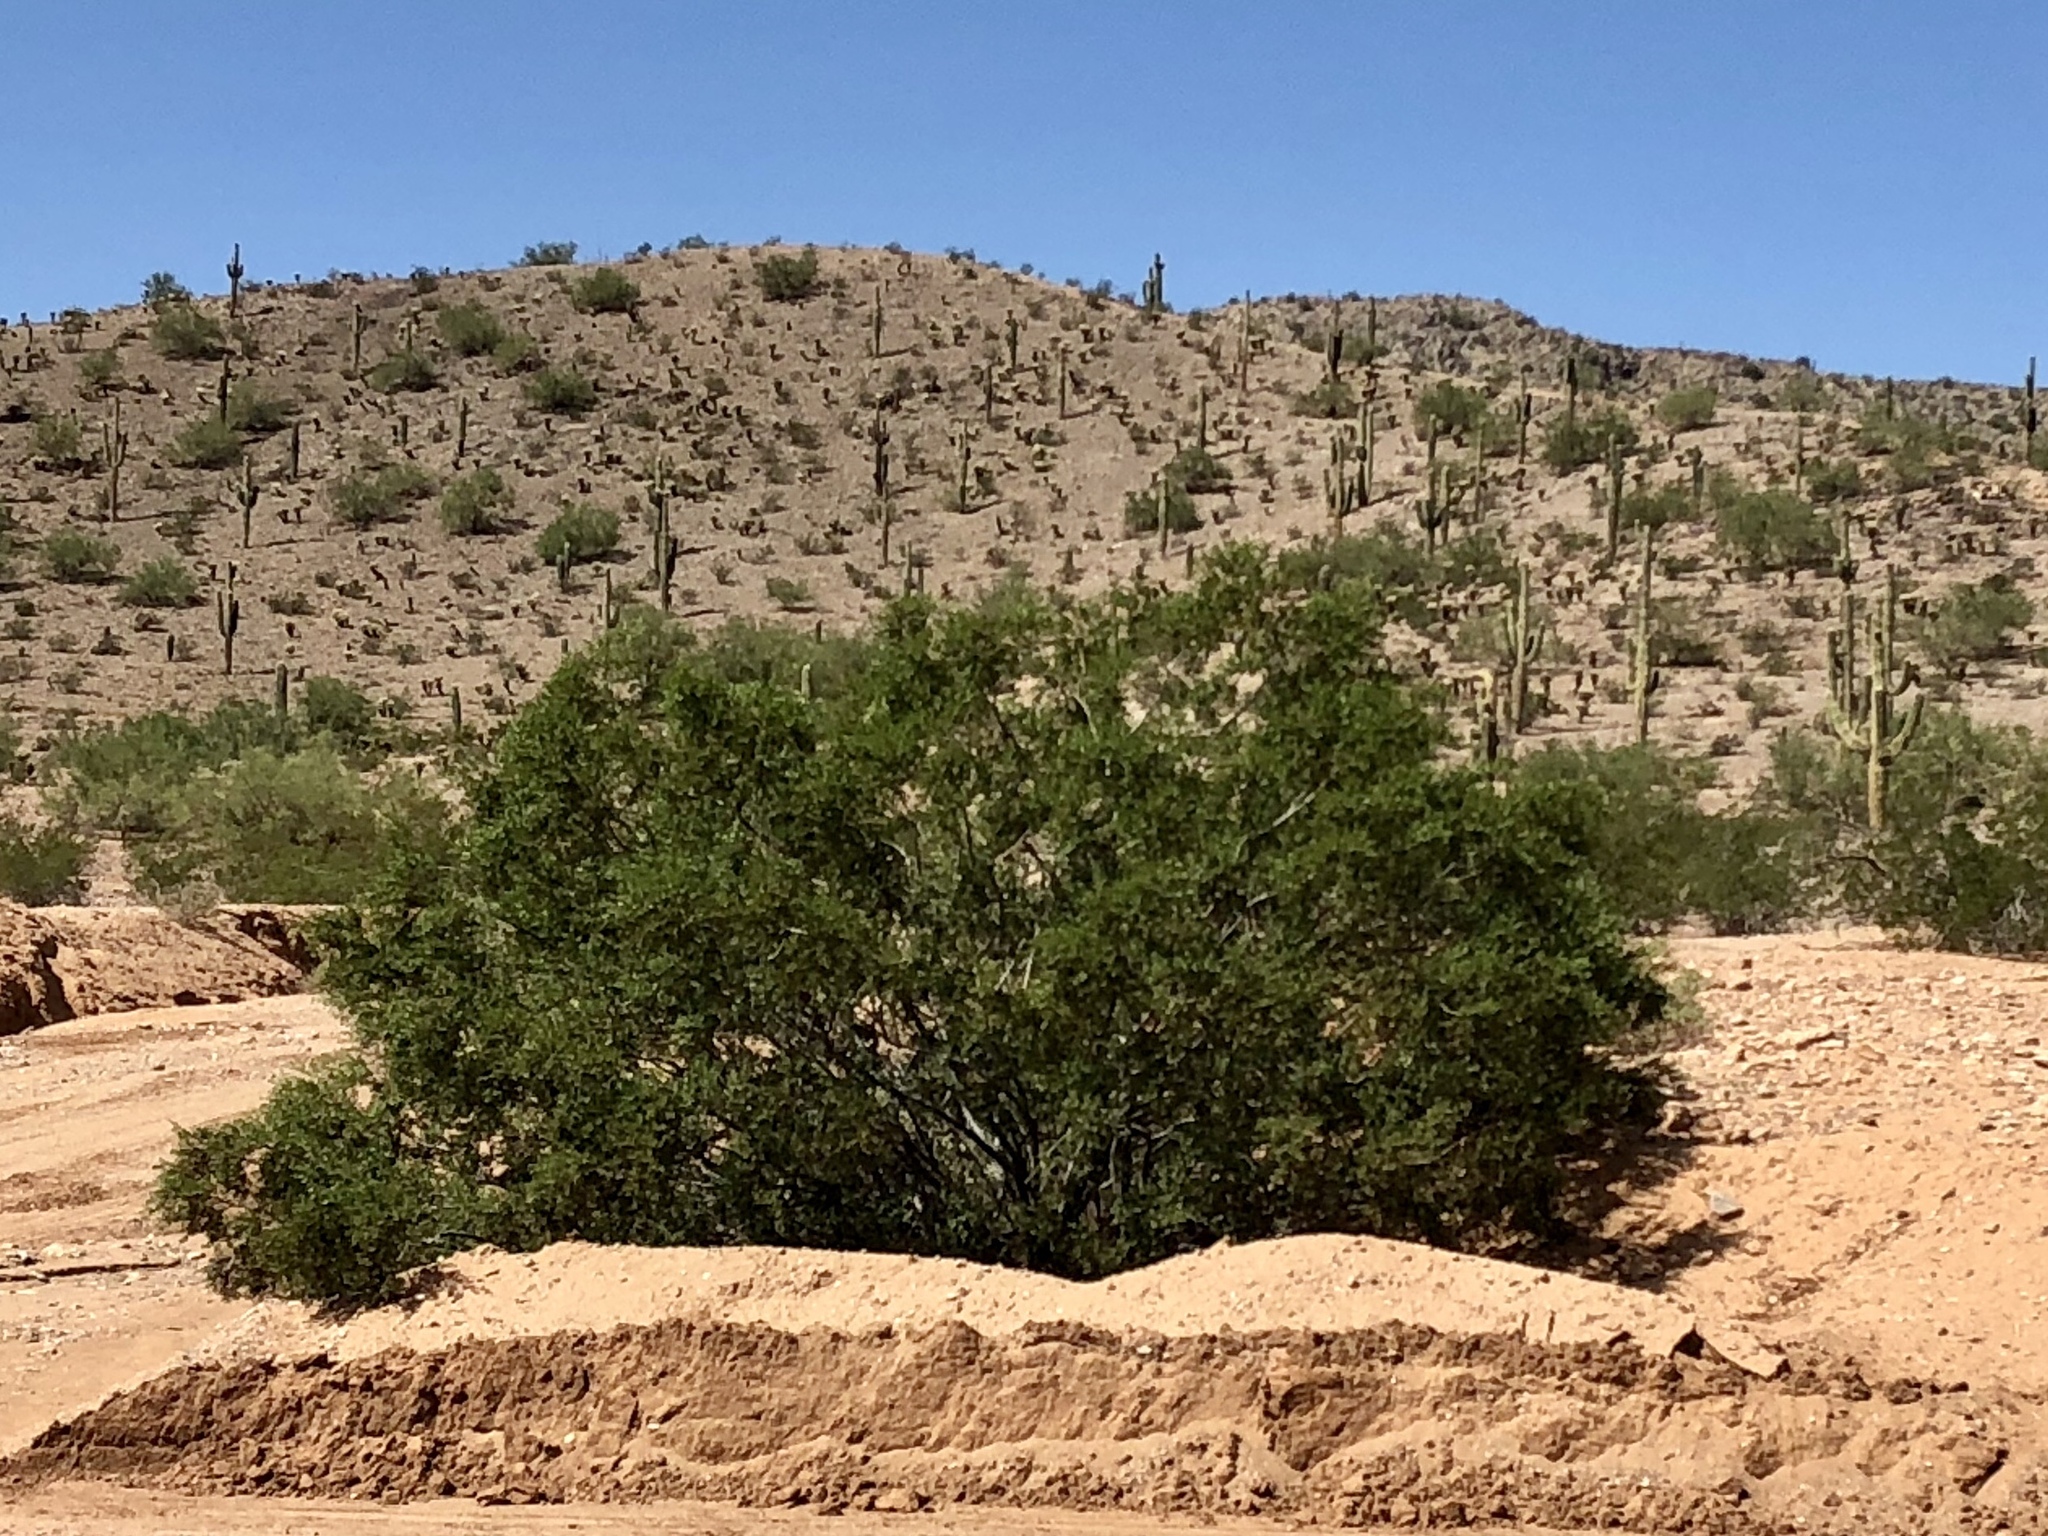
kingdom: Plantae
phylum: Tracheophyta
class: Magnoliopsida
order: Zygophyllales
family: Zygophyllaceae
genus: Larrea
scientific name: Larrea tridentata
